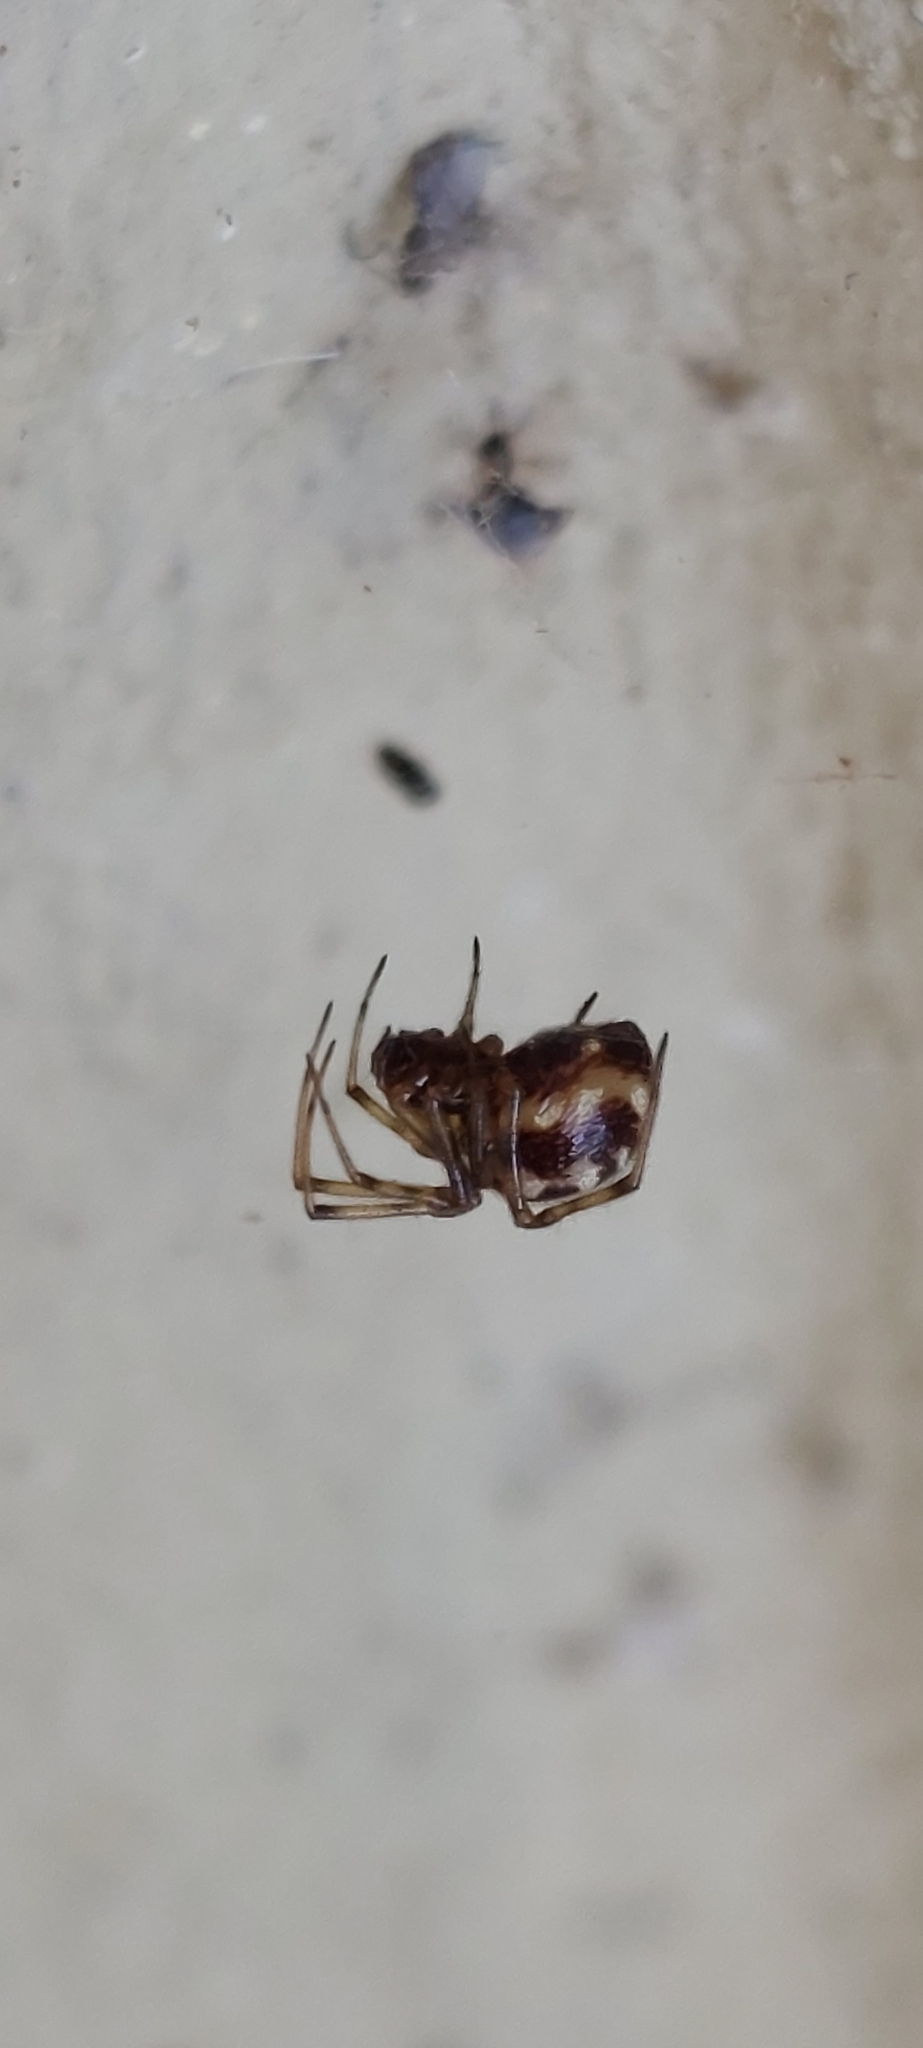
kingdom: Animalia
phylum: Arthropoda
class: Arachnida
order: Araneae
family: Theridiidae
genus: Steatoda
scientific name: Steatoda triangulosa
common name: Triangulate bud spider
